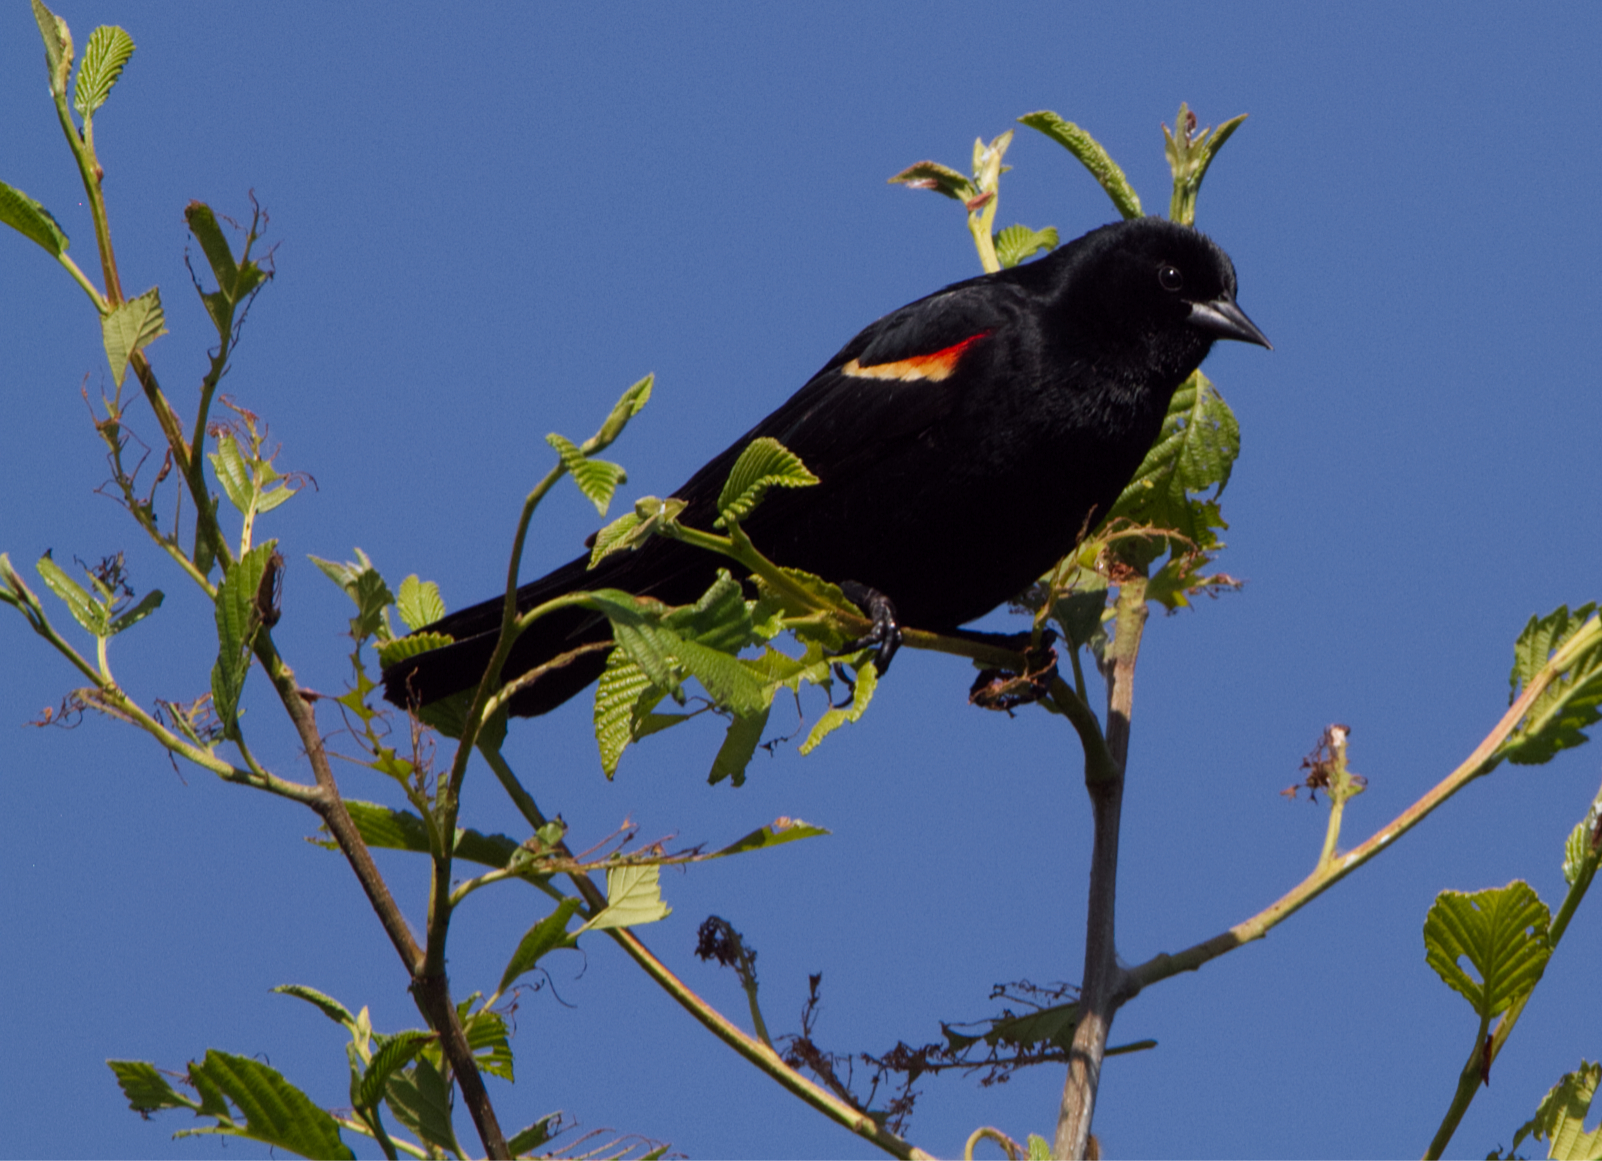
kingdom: Animalia
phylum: Chordata
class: Aves
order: Passeriformes
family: Icteridae
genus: Agelaius
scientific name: Agelaius phoeniceus
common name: Red-winged blackbird
